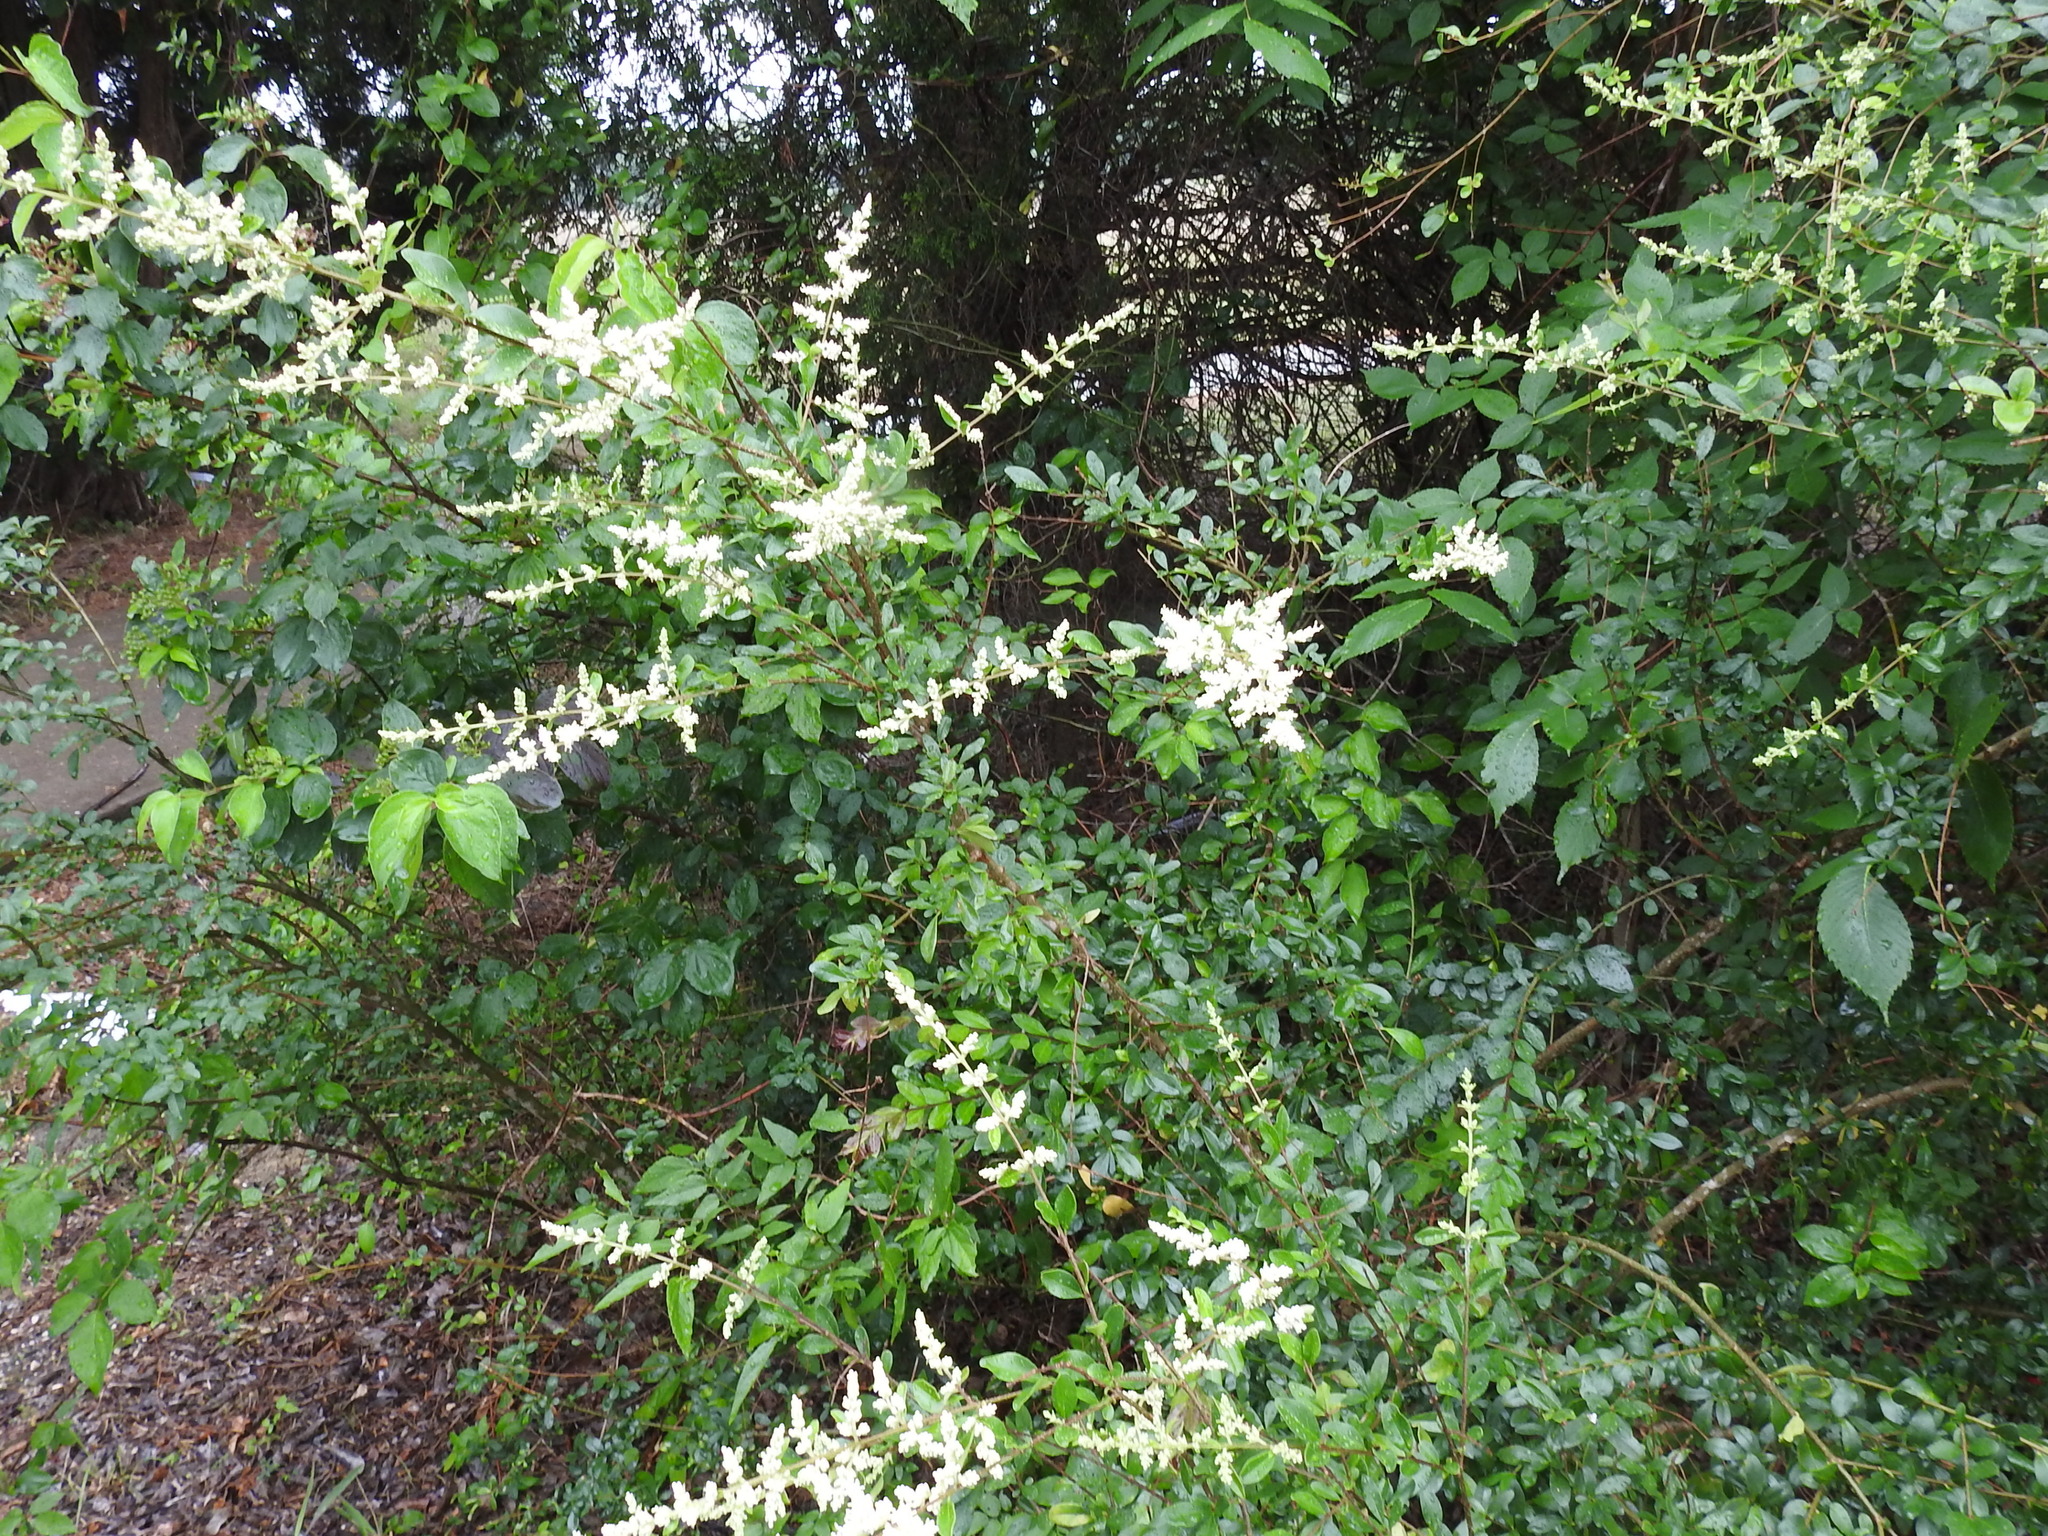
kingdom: Plantae
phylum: Tracheophyta
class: Magnoliopsida
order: Lamiales
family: Oleaceae
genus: Ligustrum
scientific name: Ligustrum quihoui
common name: Waxyleaf privet
